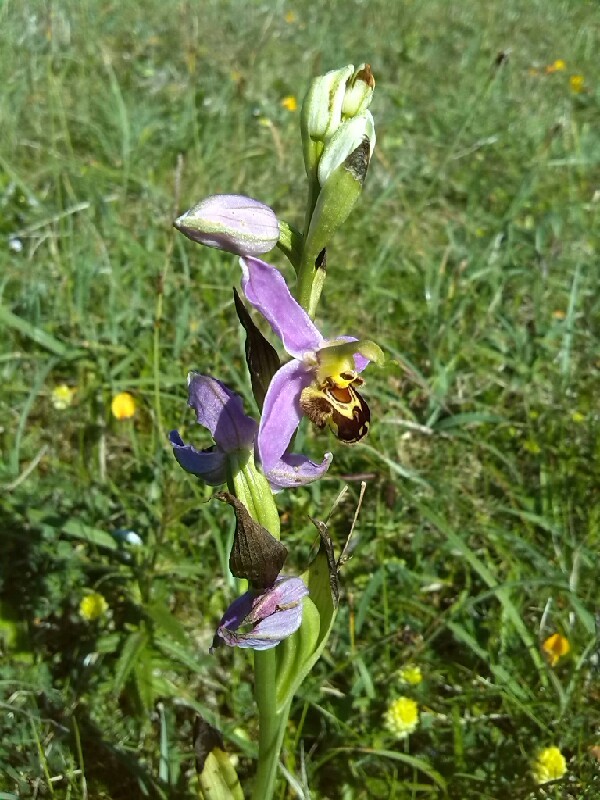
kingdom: Plantae
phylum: Tracheophyta
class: Liliopsida
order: Asparagales
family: Orchidaceae
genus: Ophrys
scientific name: Ophrys apifera
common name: Bee orchid
